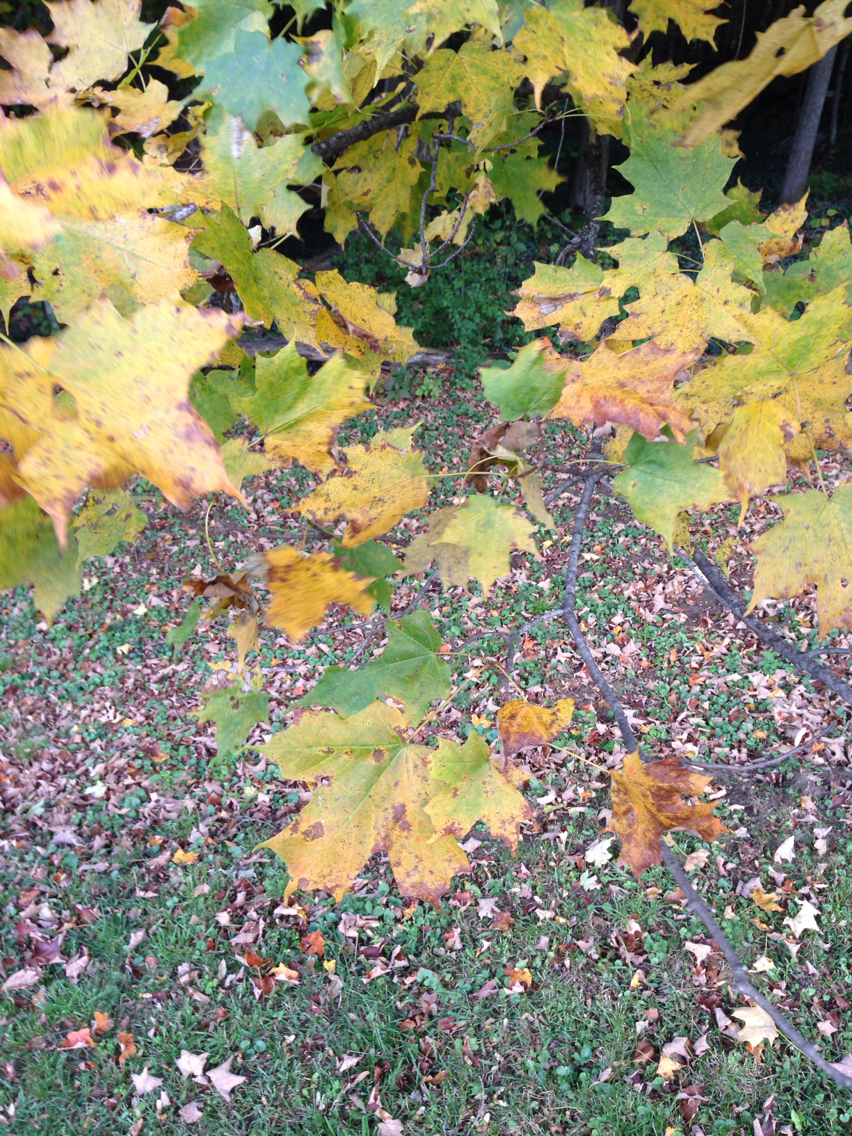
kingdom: Plantae
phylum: Tracheophyta
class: Magnoliopsida
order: Sapindales
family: Sapindaceae
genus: Acer
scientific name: Acer saccharum
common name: Sugar maple
